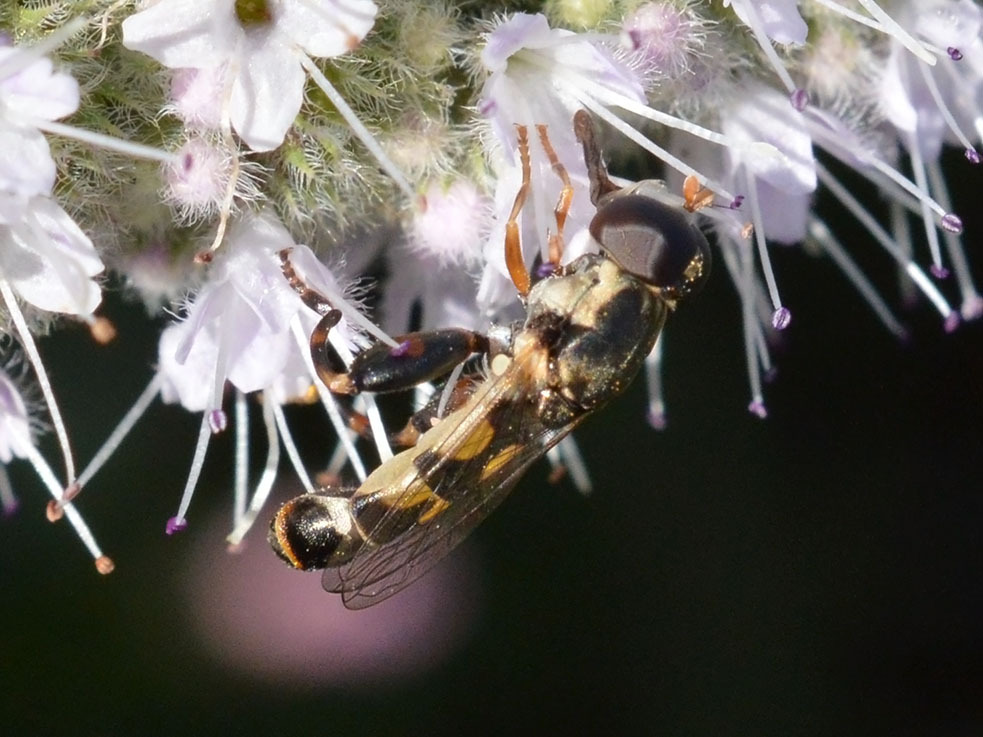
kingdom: Animalia
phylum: Arthropoda
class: Insecta
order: Diptera
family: Syrphidae
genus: Syritta
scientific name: Syritta pipiens
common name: Hover fly
